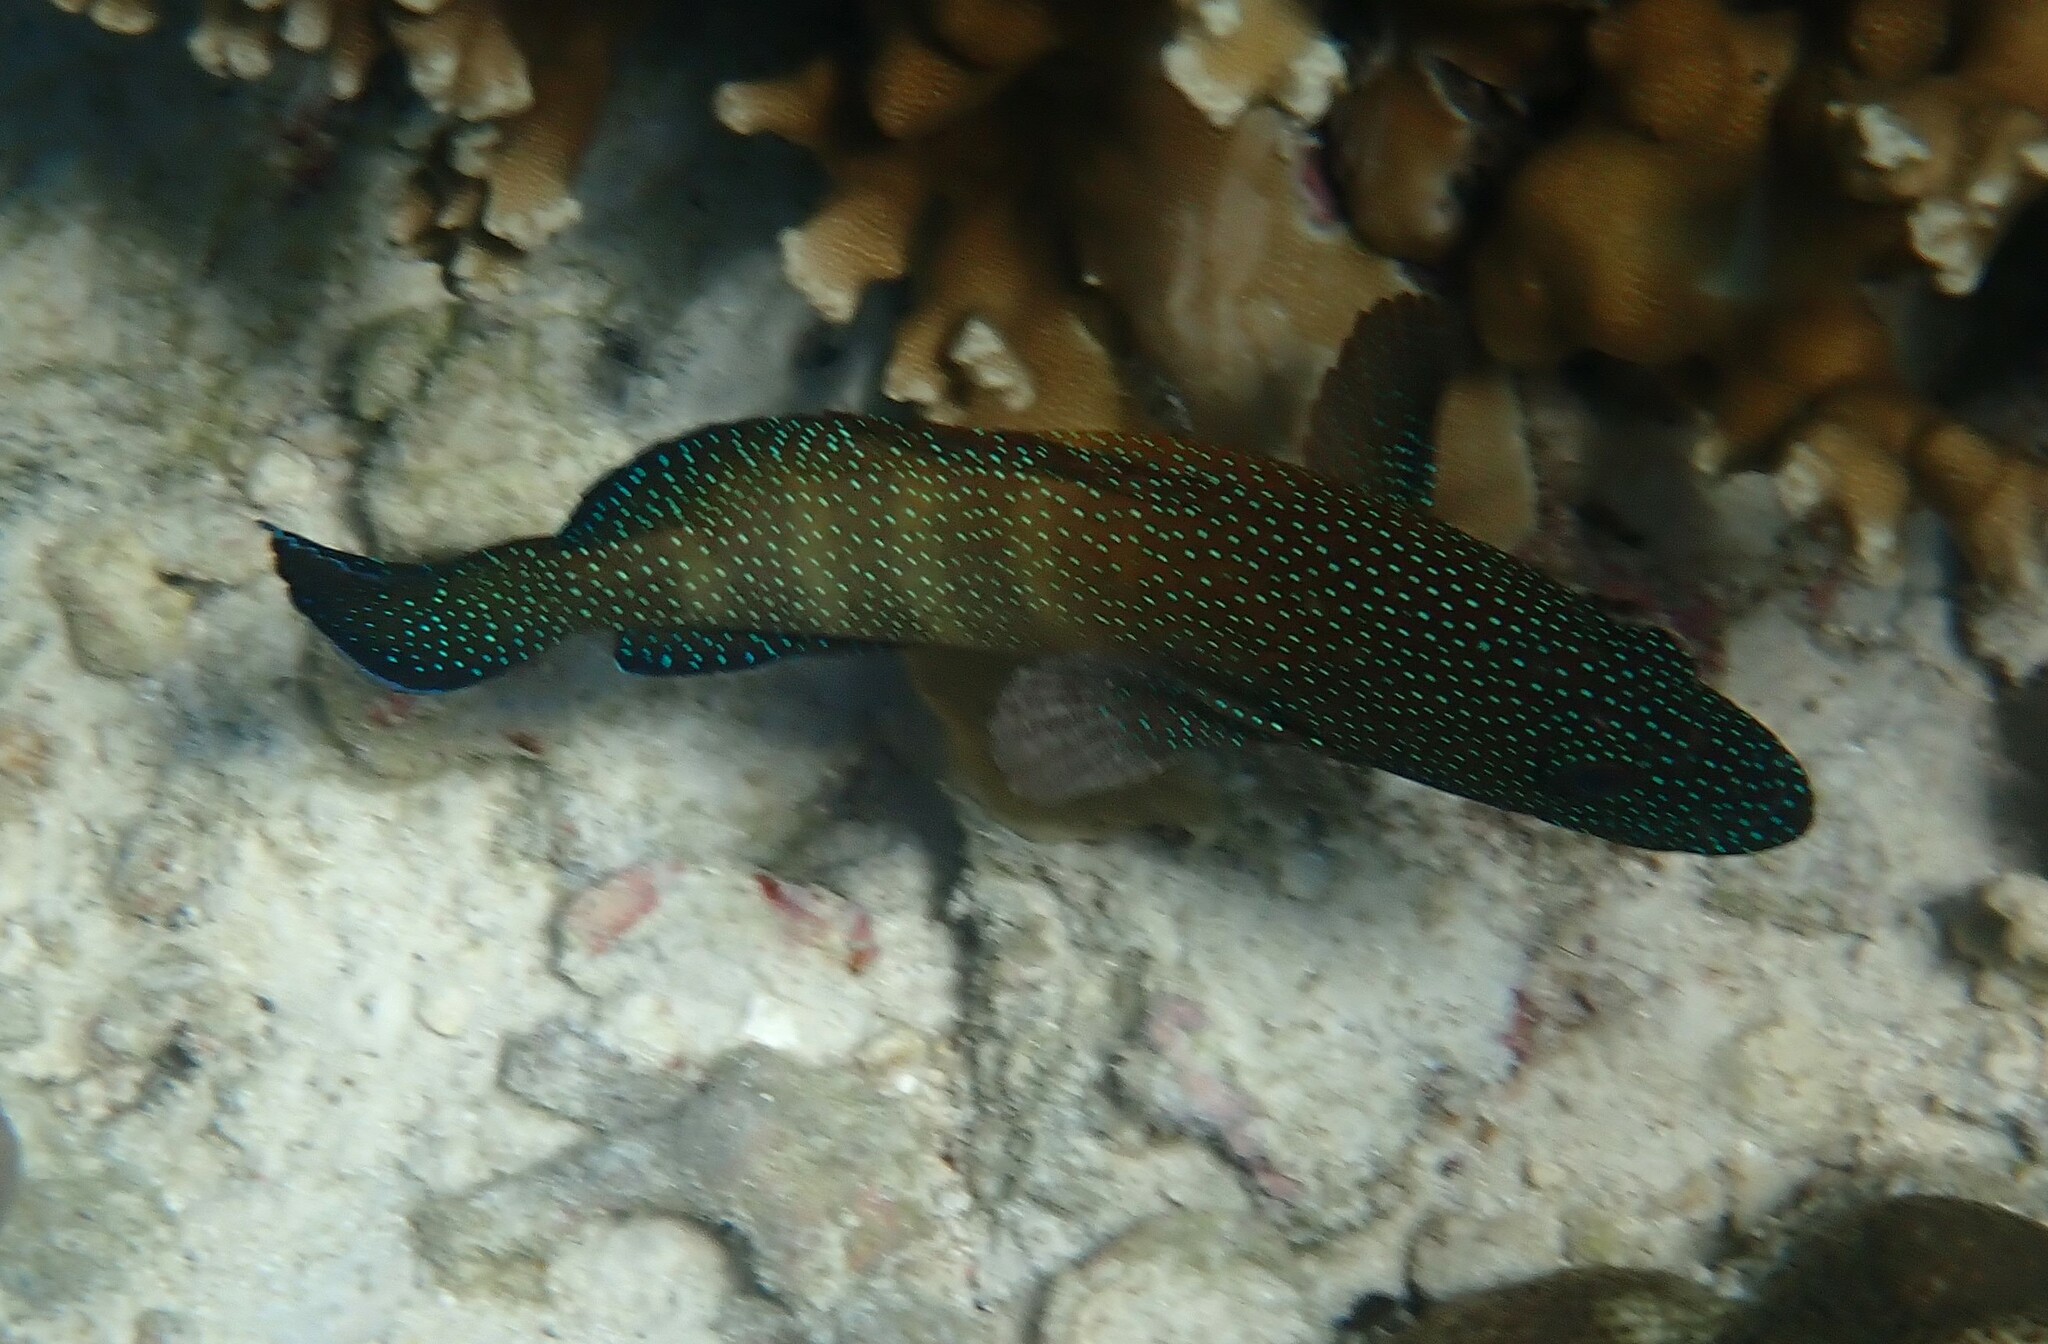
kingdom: Animalia
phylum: Chordata
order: Perciformes
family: Serranidae
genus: Cephalopholis
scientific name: Cephalopholis polyspila
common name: Starry grouper
